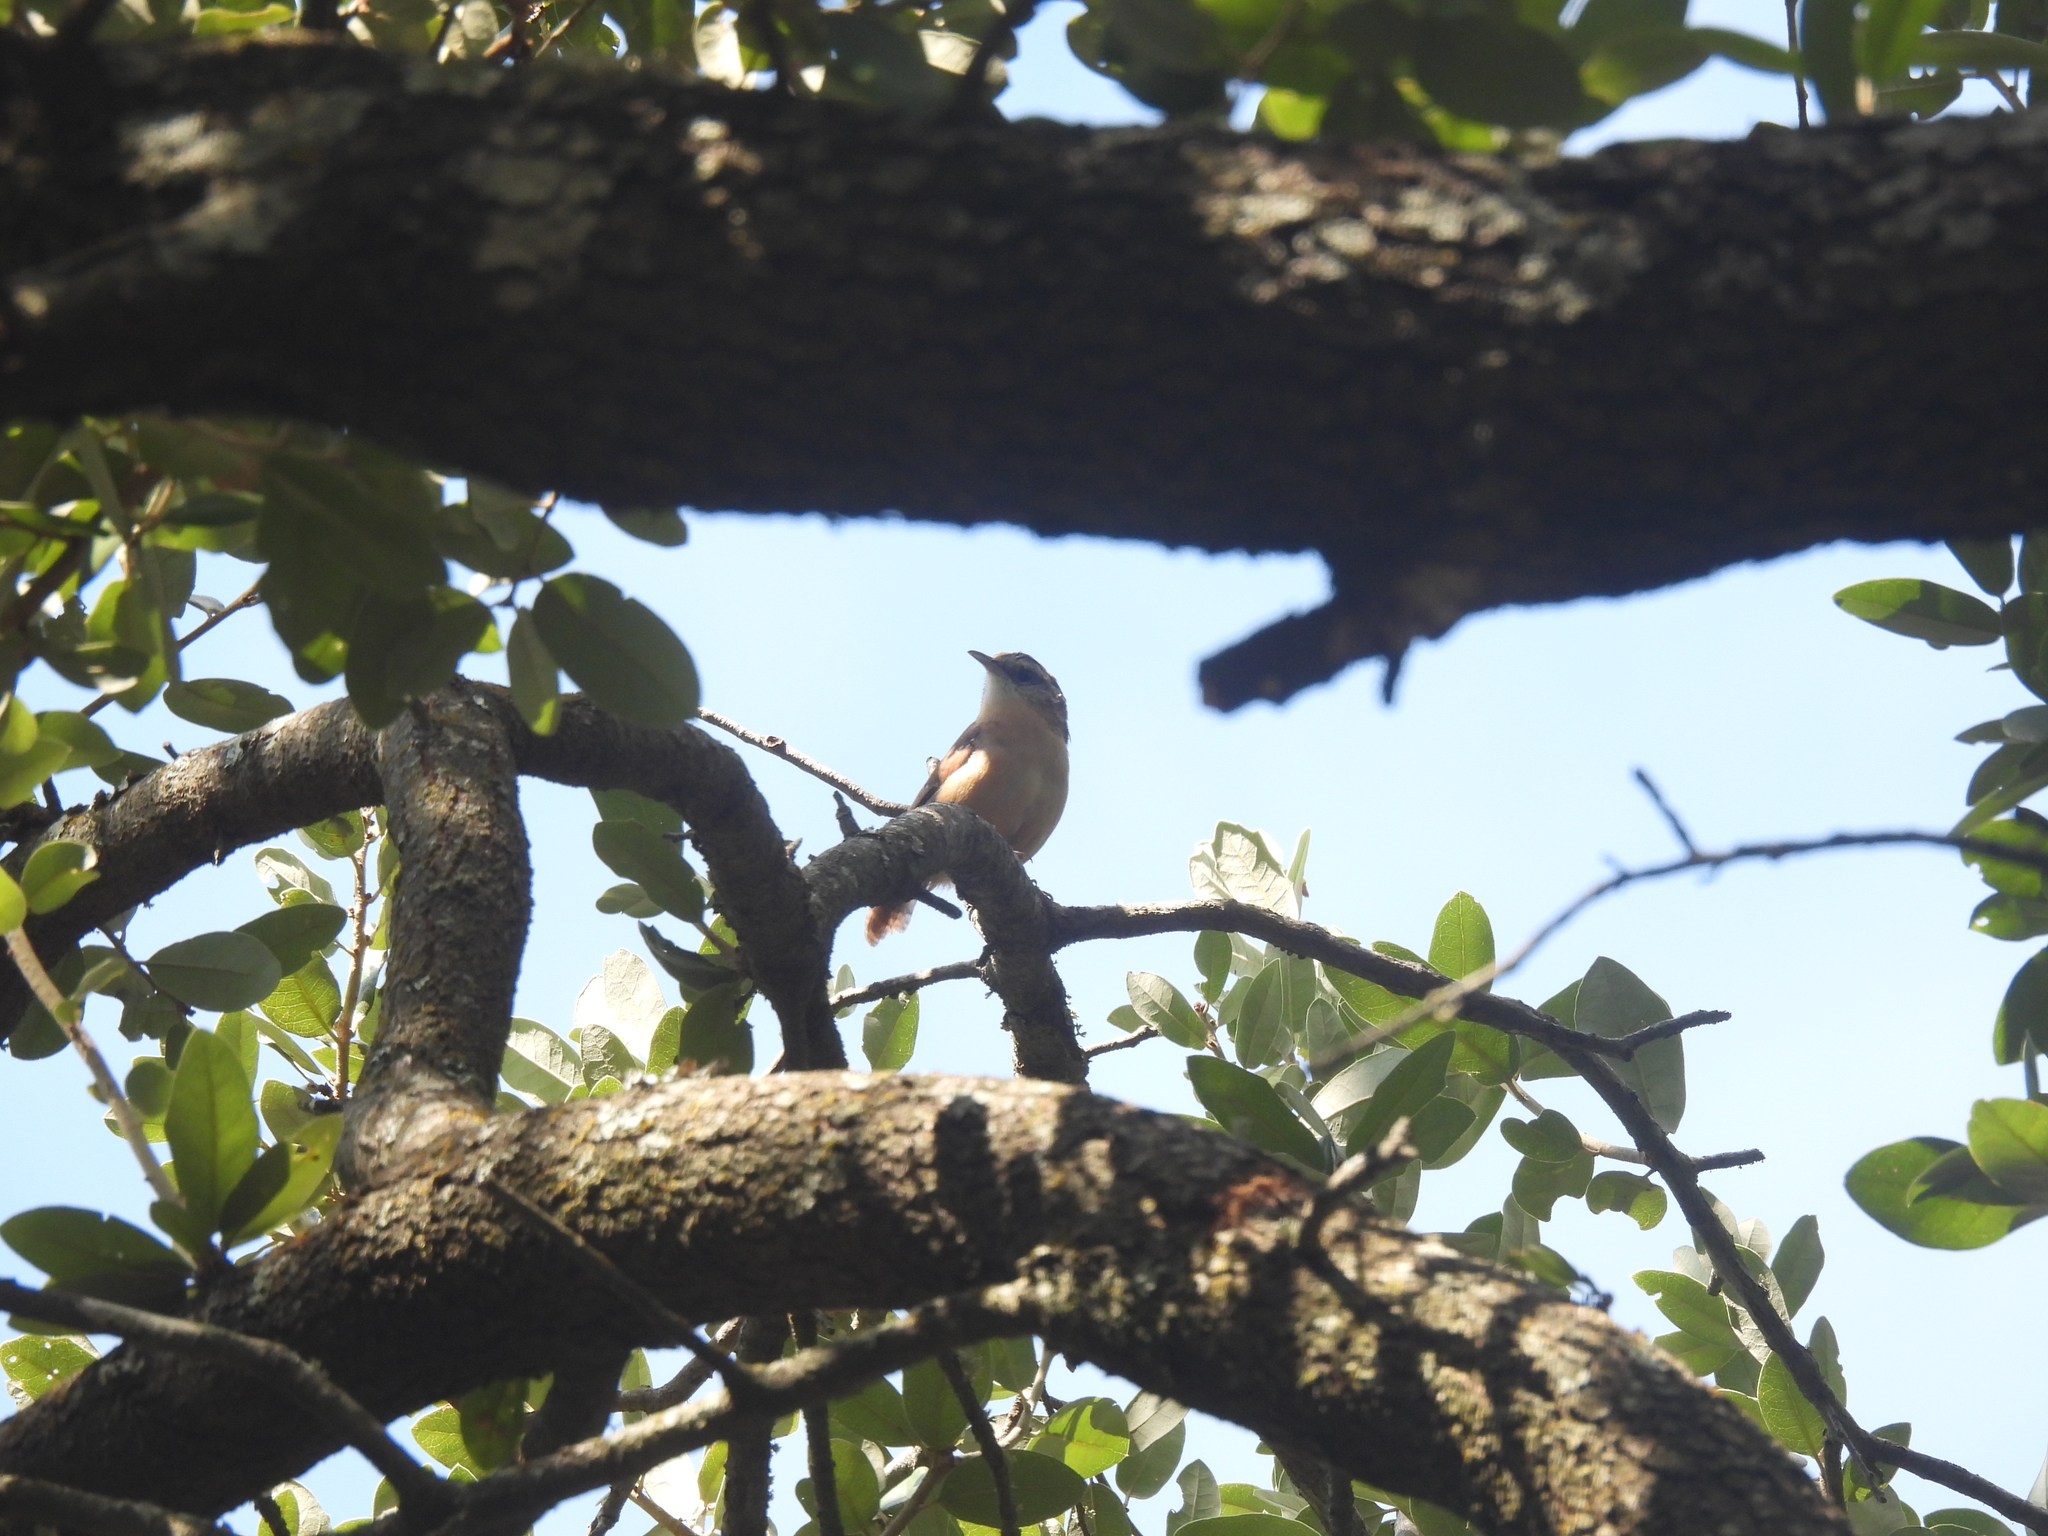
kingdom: Animalia
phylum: Chordata
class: Aves
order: Passeriformes
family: Troglodytidae
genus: Thryothorus
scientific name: Thryothorus ludovicianus
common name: Carolina wren
